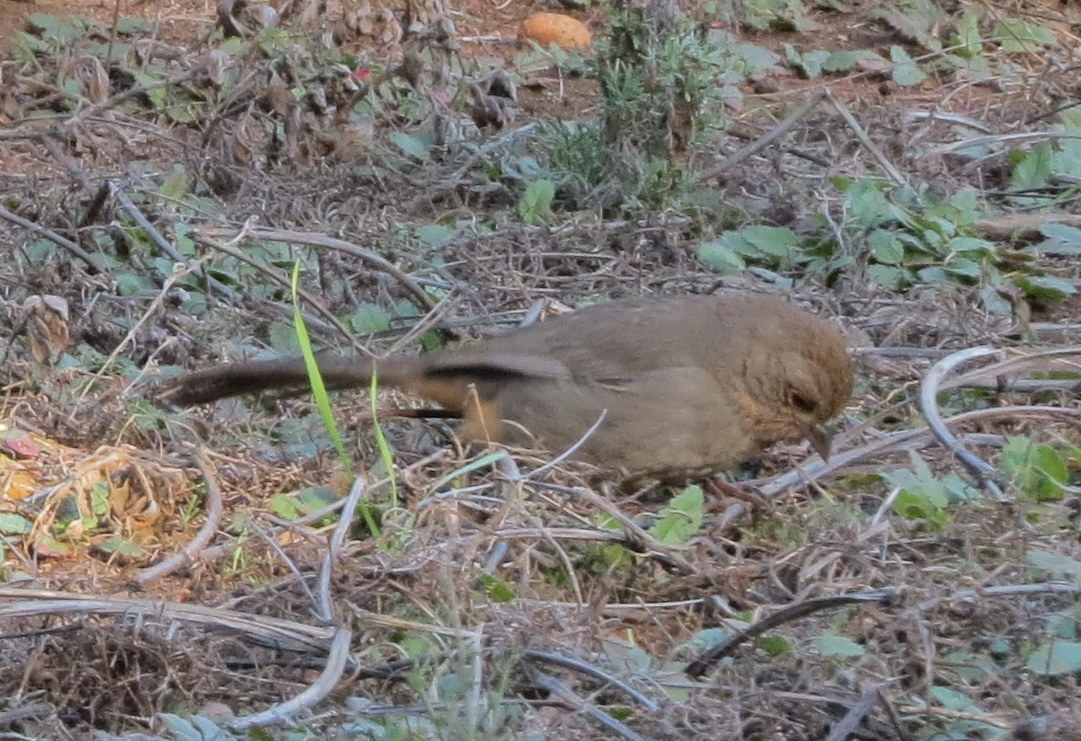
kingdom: Animalia
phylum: Chordata
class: Aves
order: Passeriformes
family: Passerellidae
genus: Melozone
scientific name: Melozone crissalis
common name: California towhee
